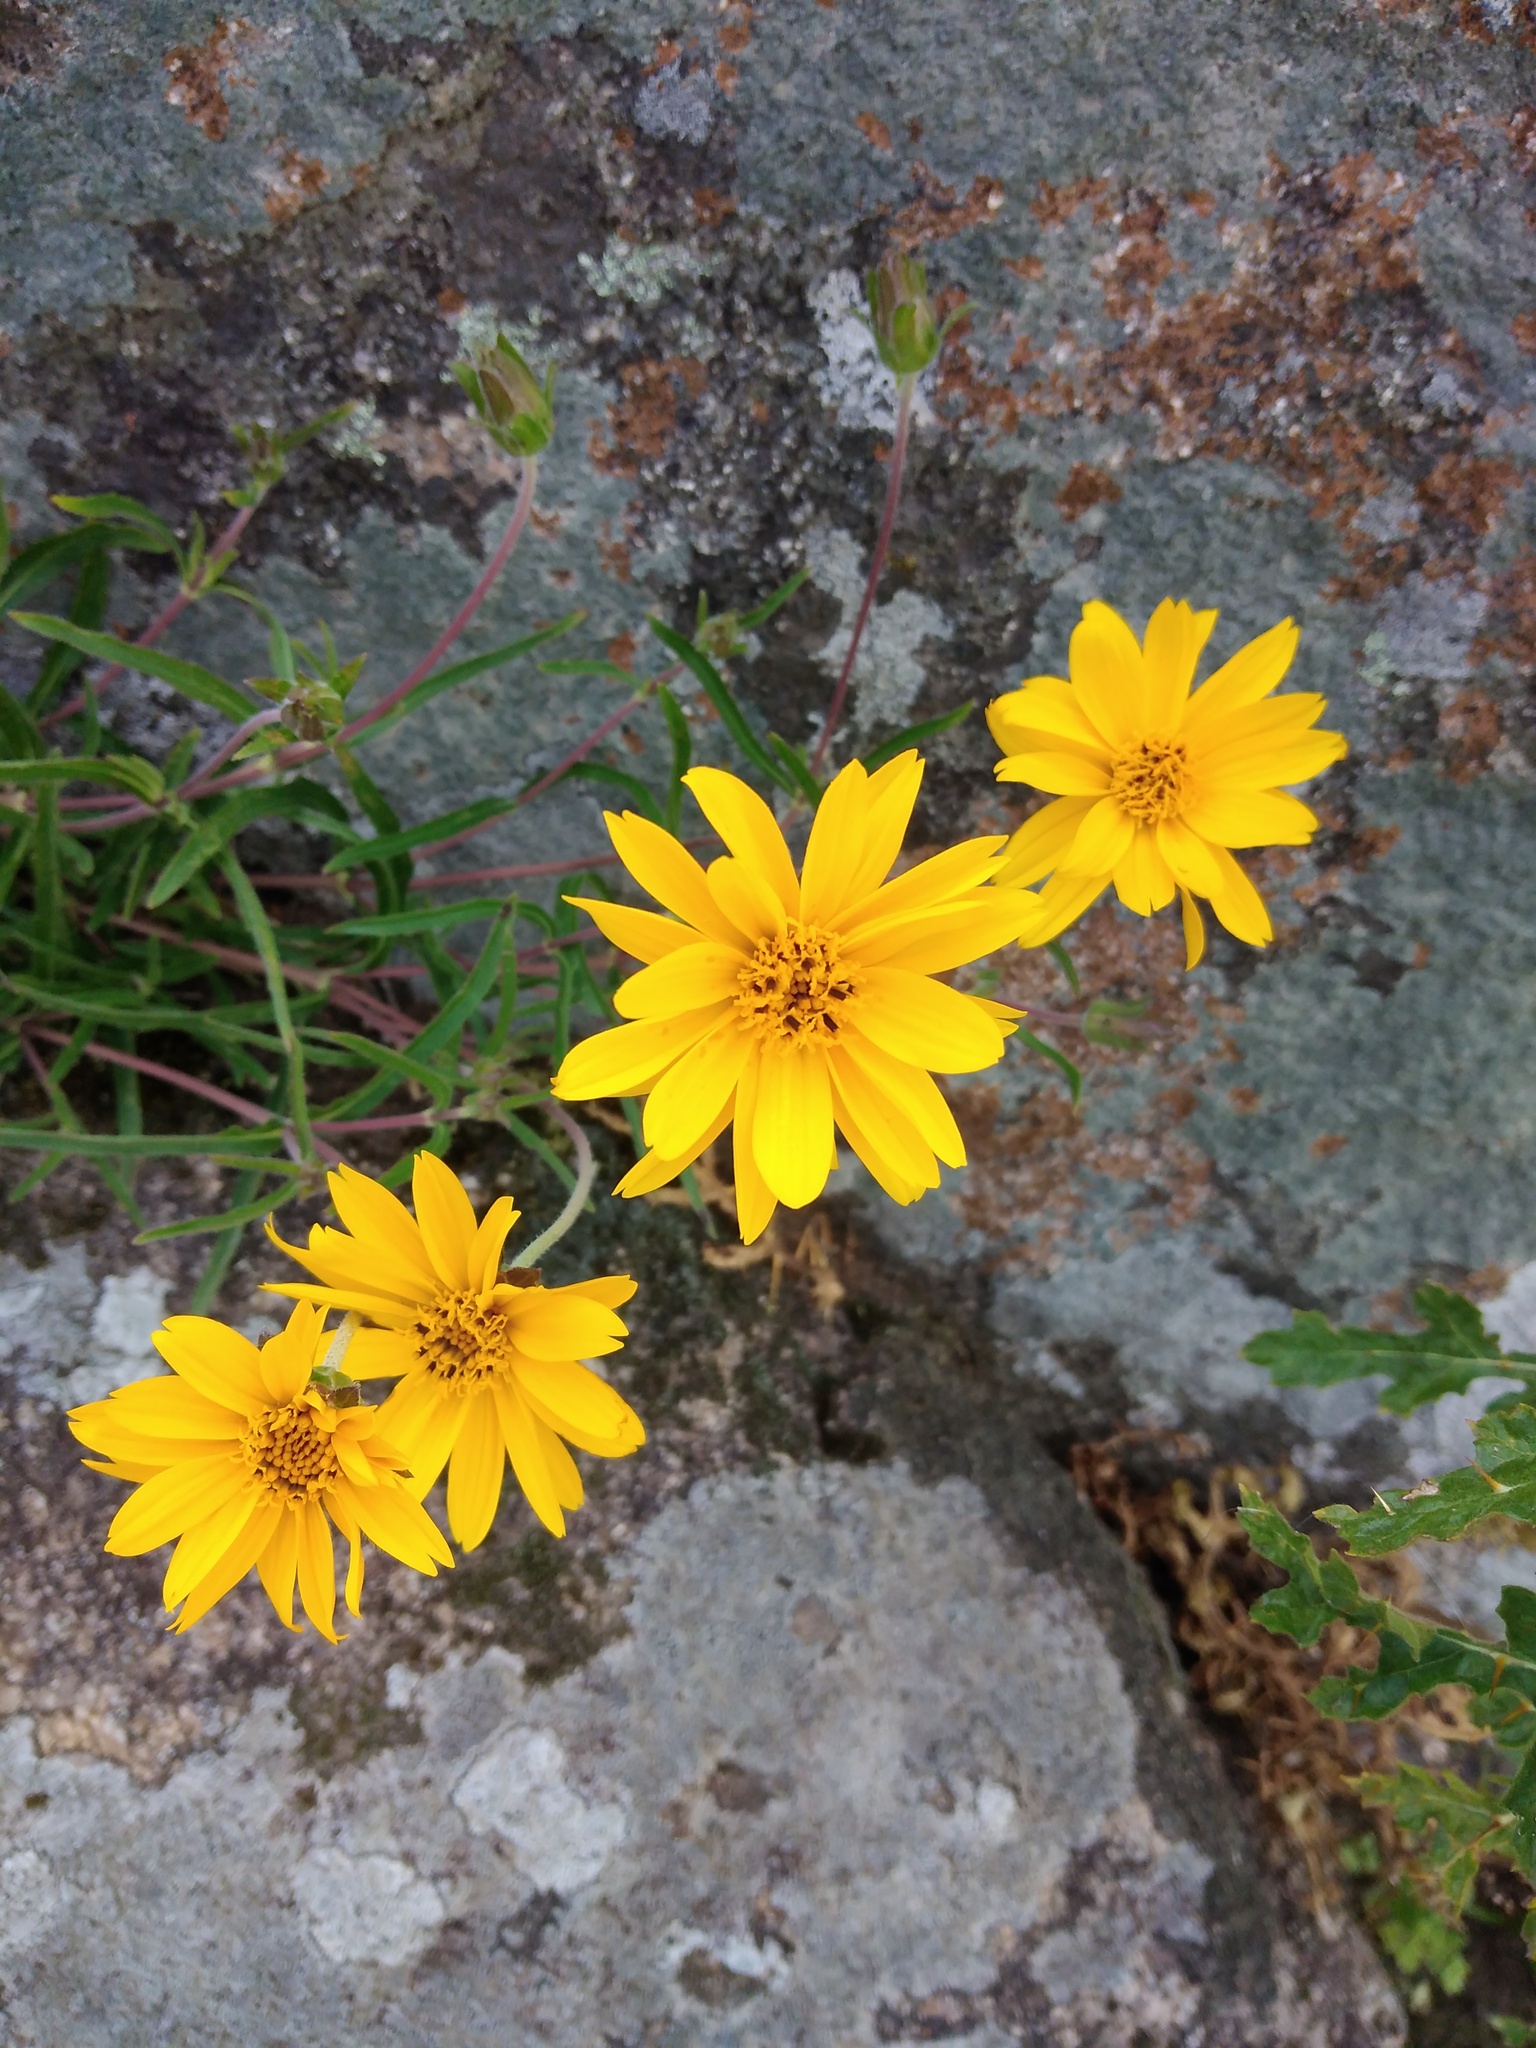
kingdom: Plantae
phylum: Tracheophyta
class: Magnoliopsida
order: Asterales
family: Asteraceae
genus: Wedelia
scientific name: Wedelia montevidensis
